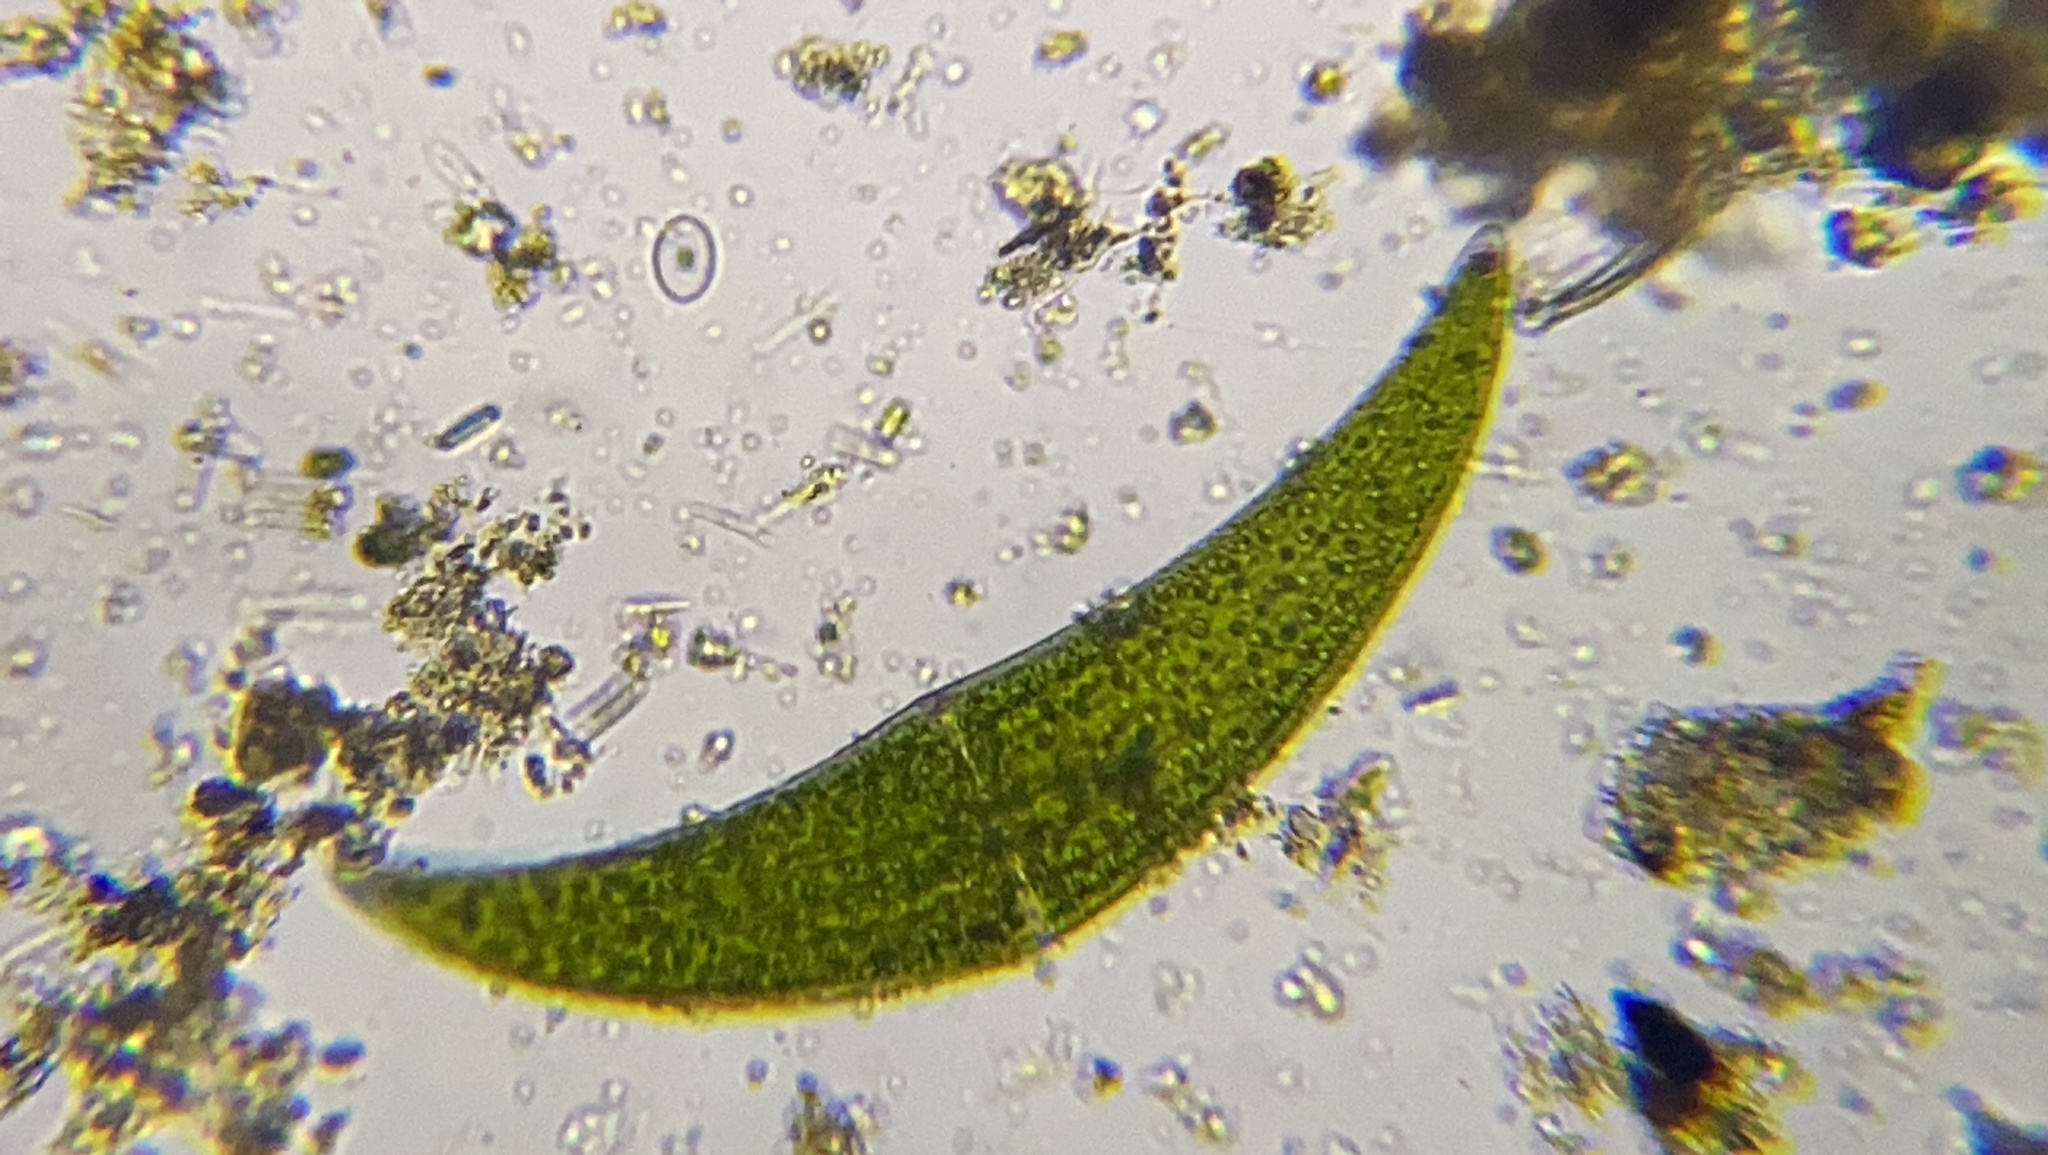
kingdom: Plantae
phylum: Charophyta
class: Zygnematophyceae
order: Zygnematales
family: Closteriaceae
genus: Closterium
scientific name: Closterium ehrenbergii
